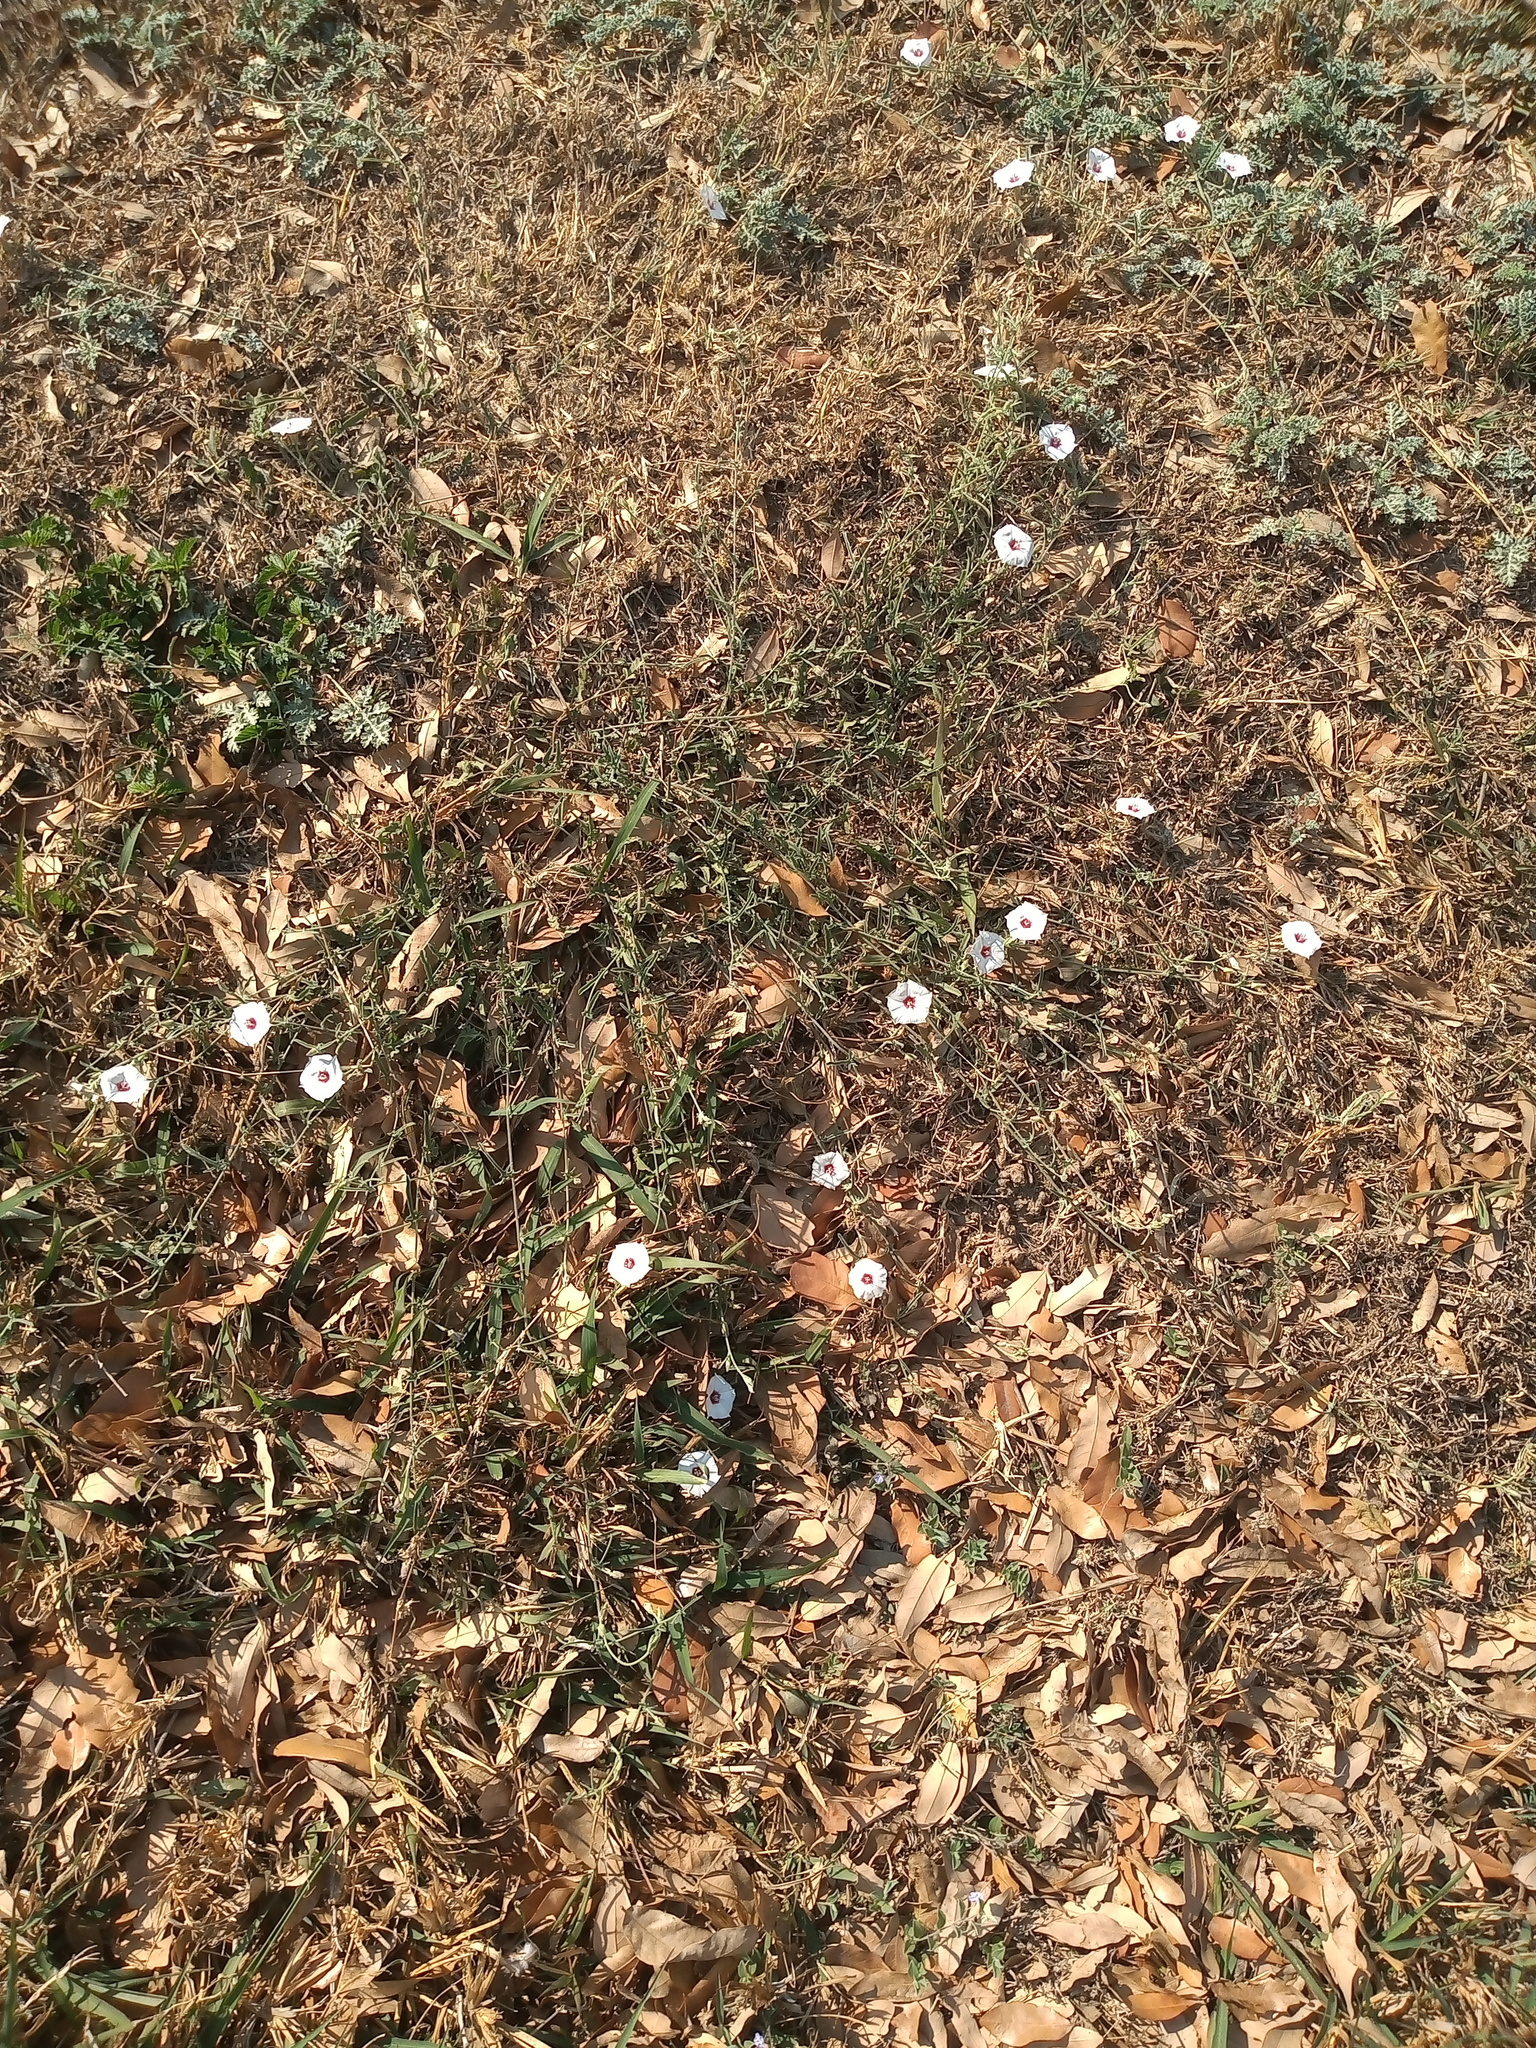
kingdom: Plantae
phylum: Tracheophyta
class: Magnoliopsida
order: Solanales
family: Convolvulaceae
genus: Convolvulus
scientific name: Convolvulus equitans
